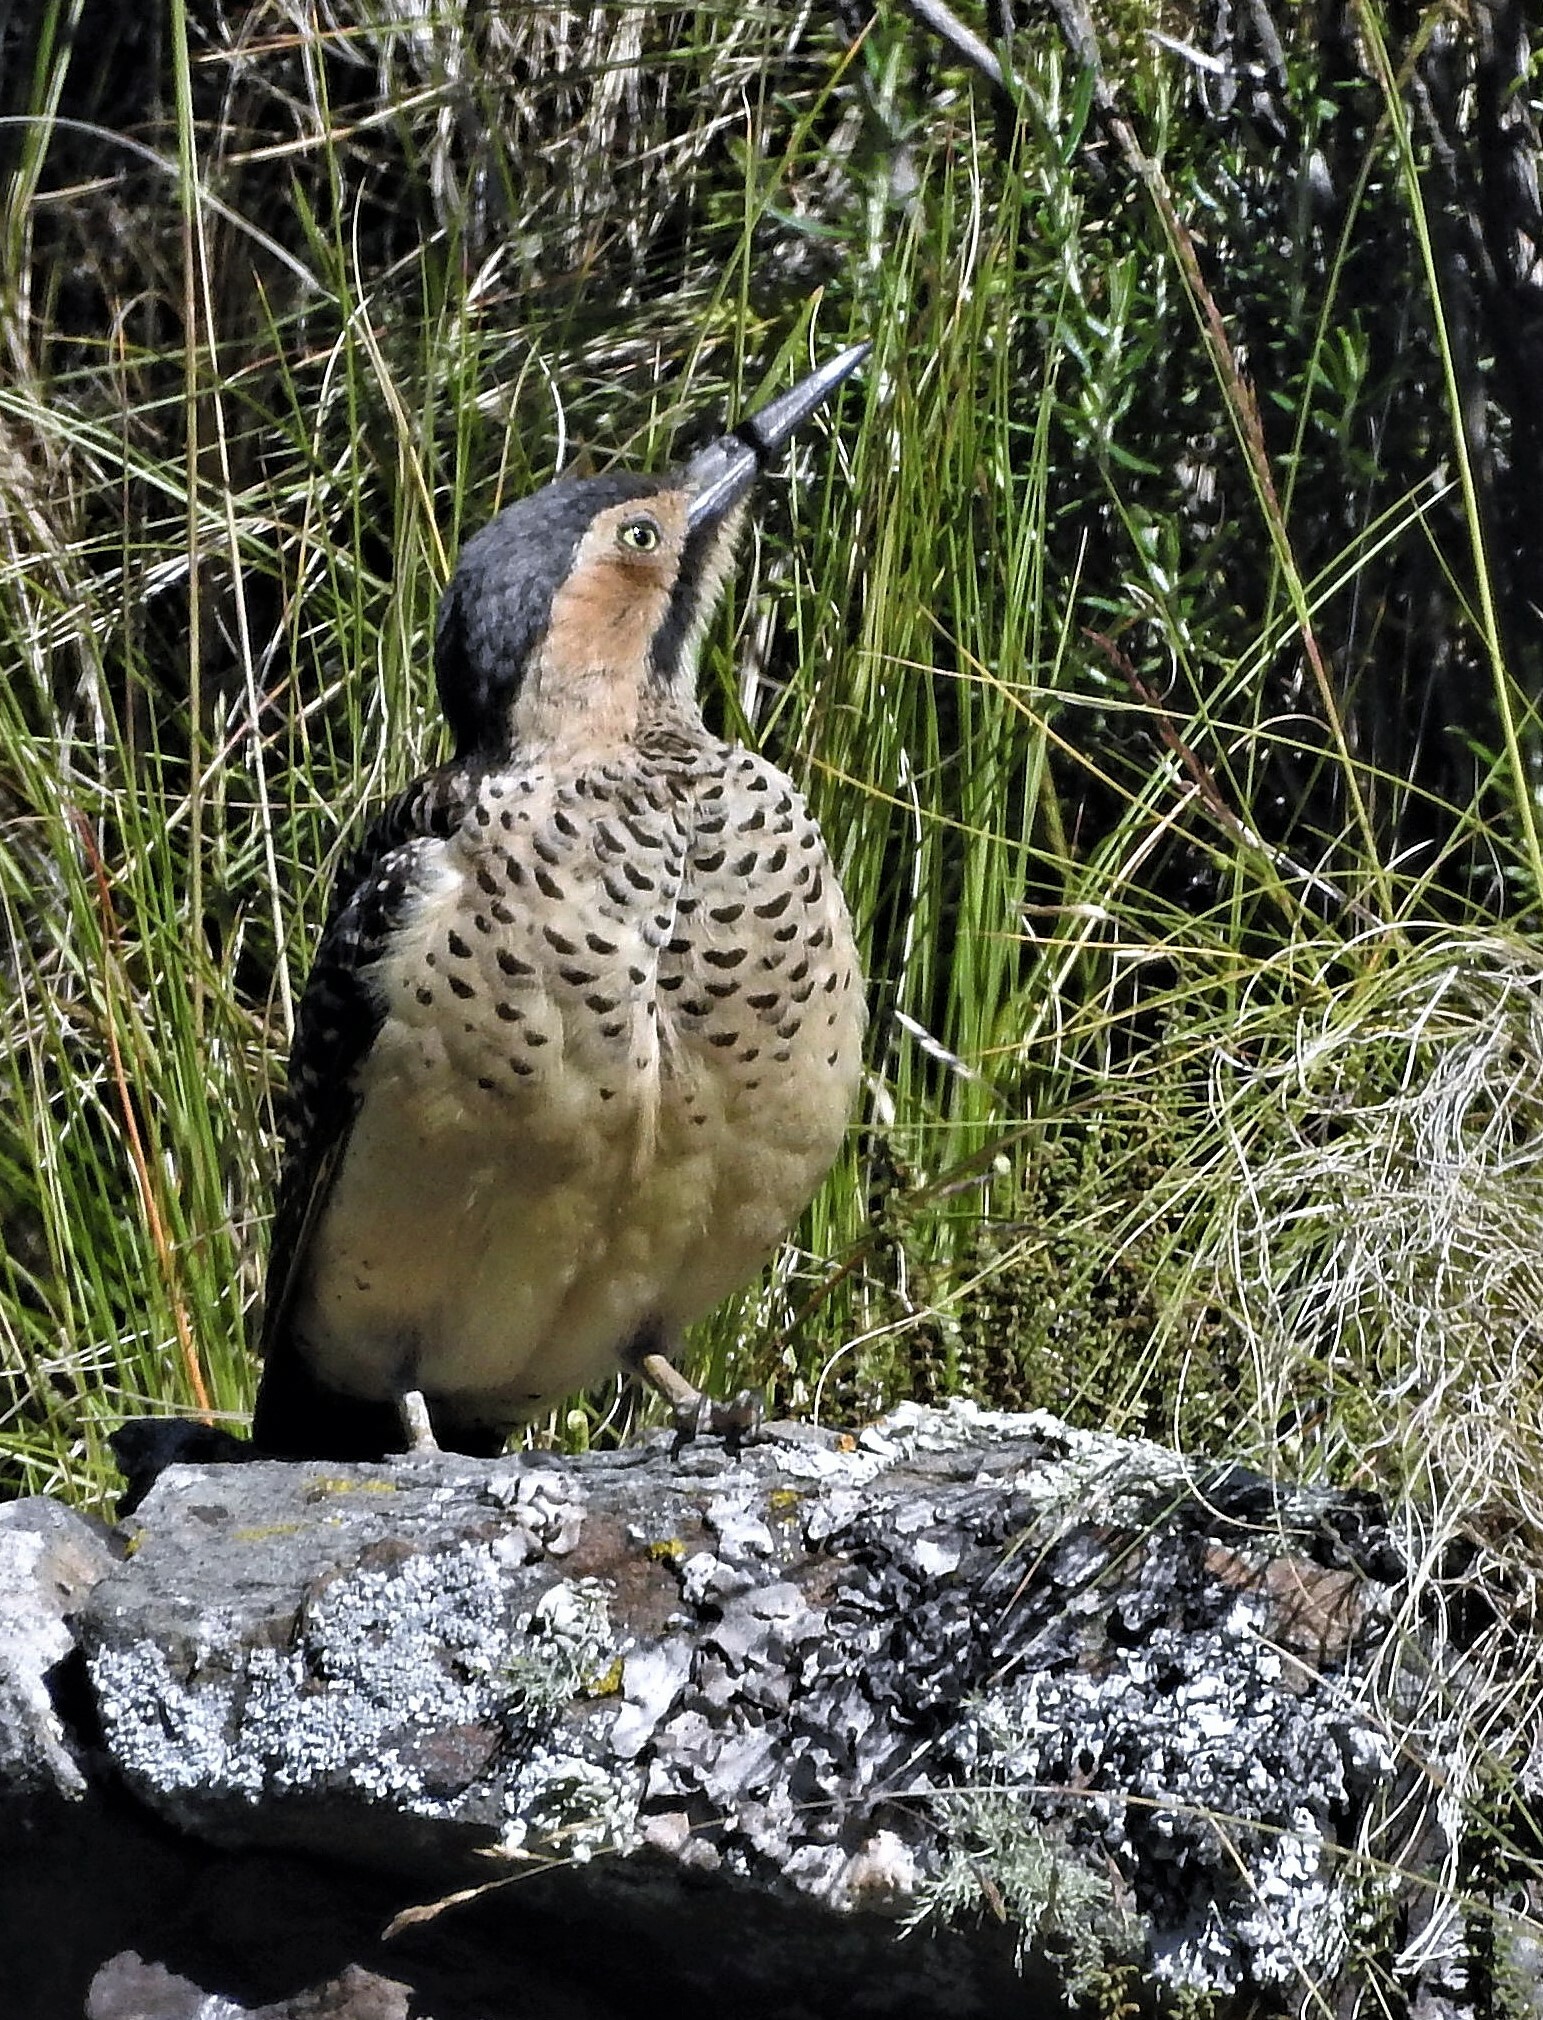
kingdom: Animalia
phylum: Chordata
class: Aves
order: Piciformes
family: Picidae
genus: Colaptes
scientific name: Colaptes rupicola
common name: Andean flicker
